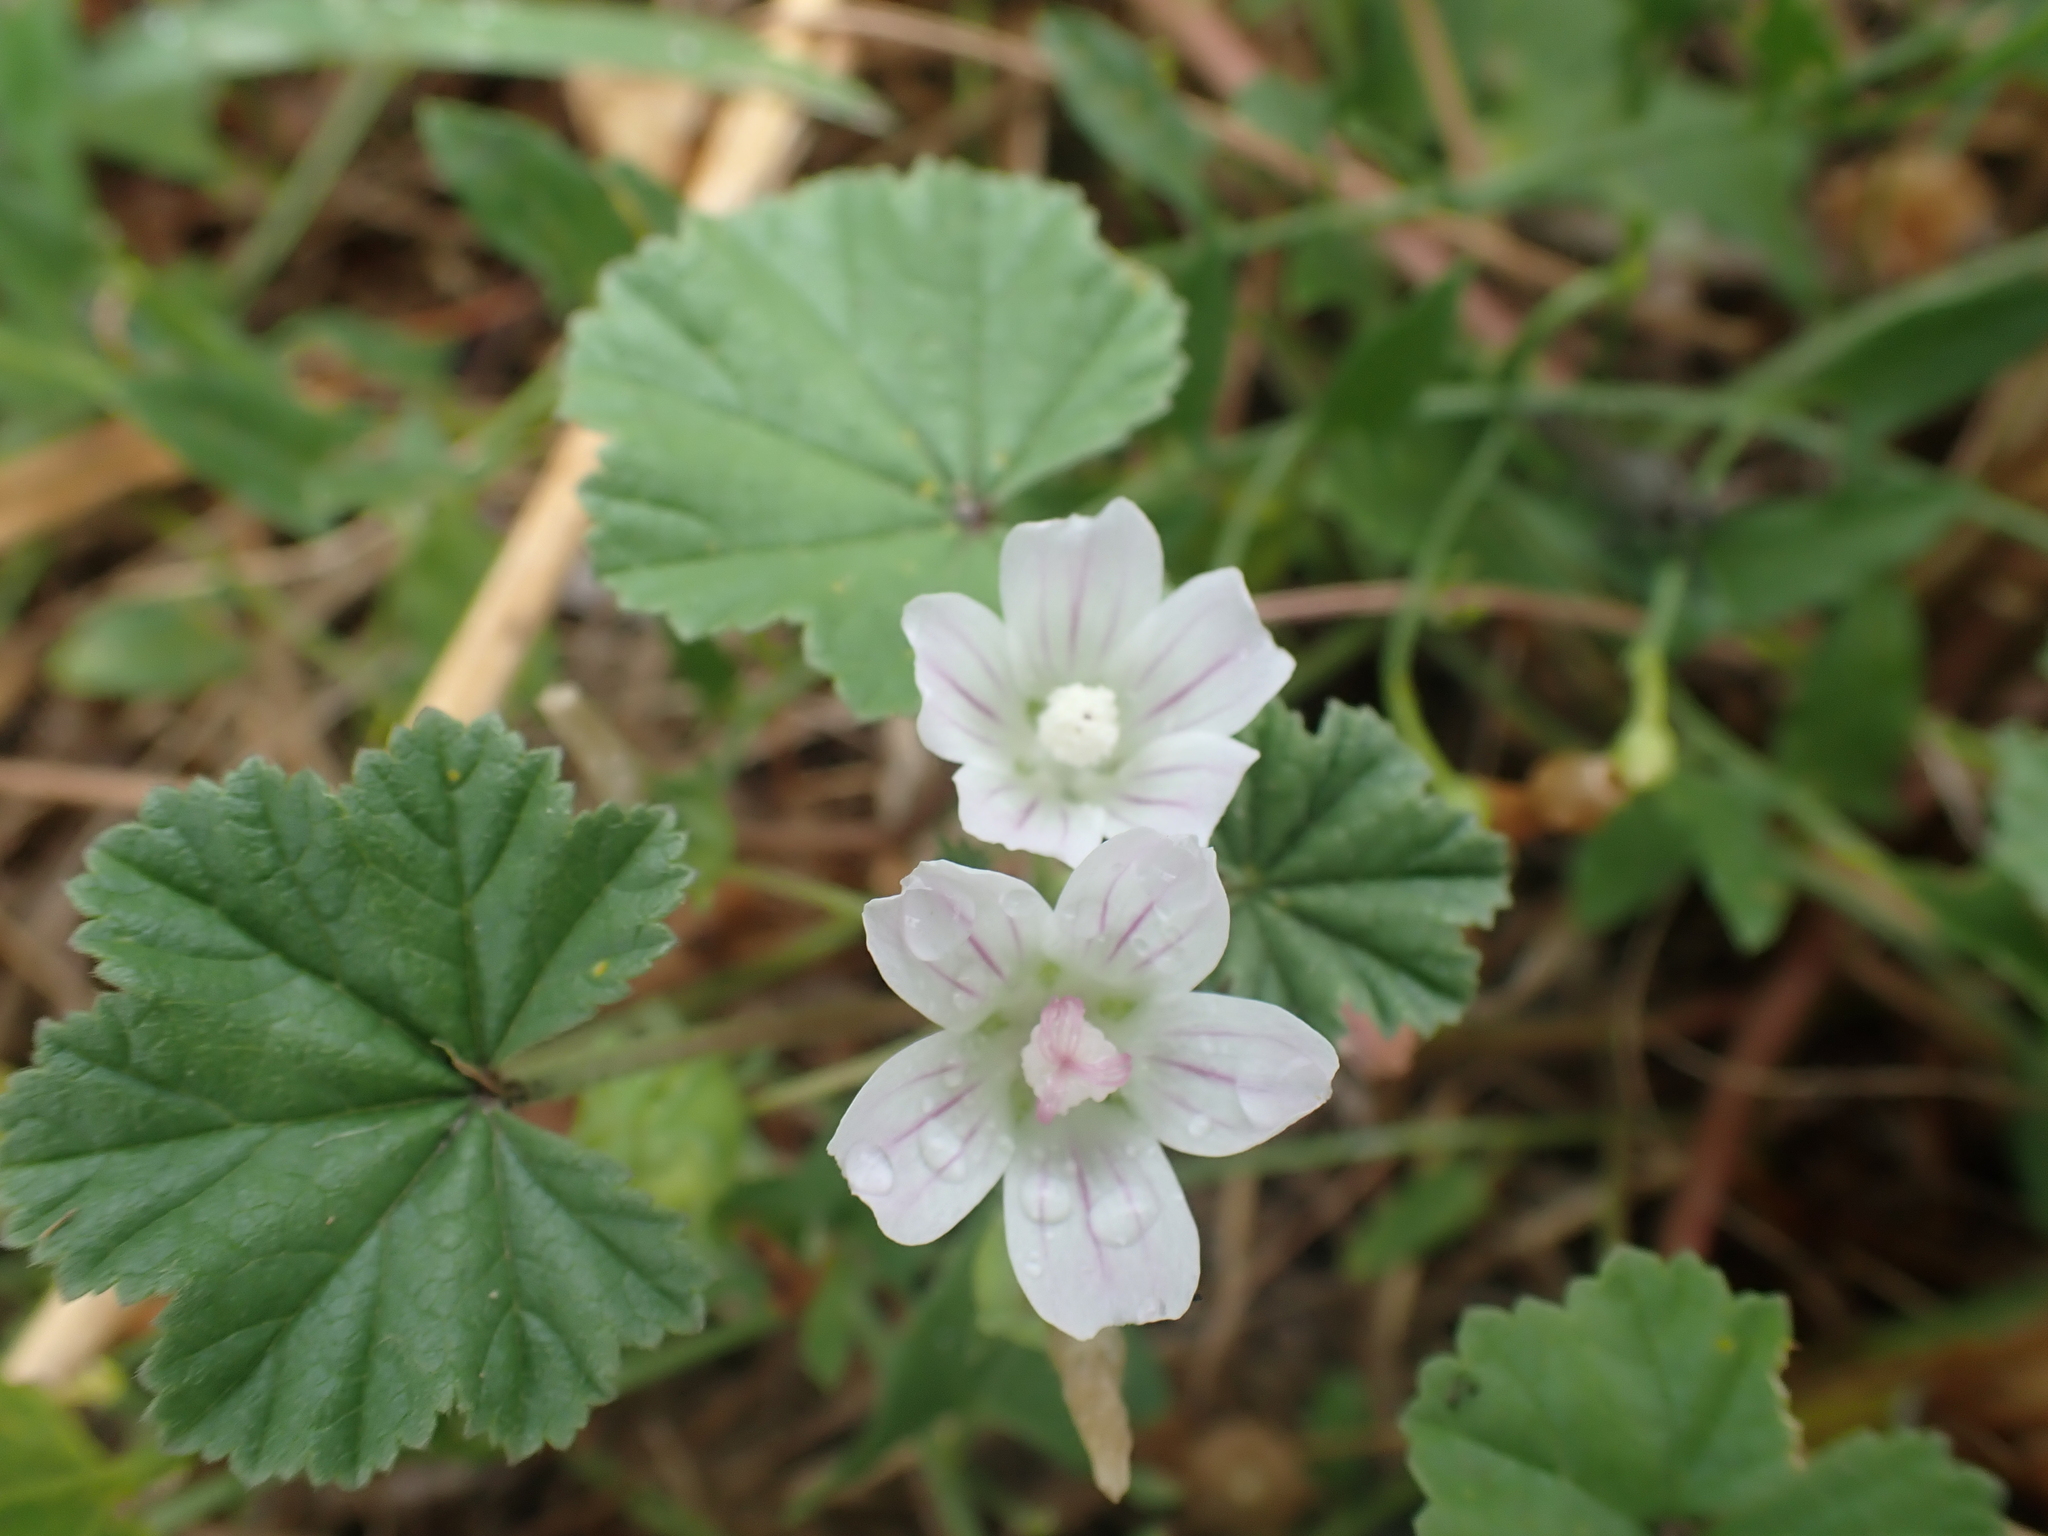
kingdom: Plantae
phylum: Tracheophyta
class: Magnoliopsida
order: Malvales
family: Malvaceae
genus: Malva
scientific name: Malva neglecta
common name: Common mallow
